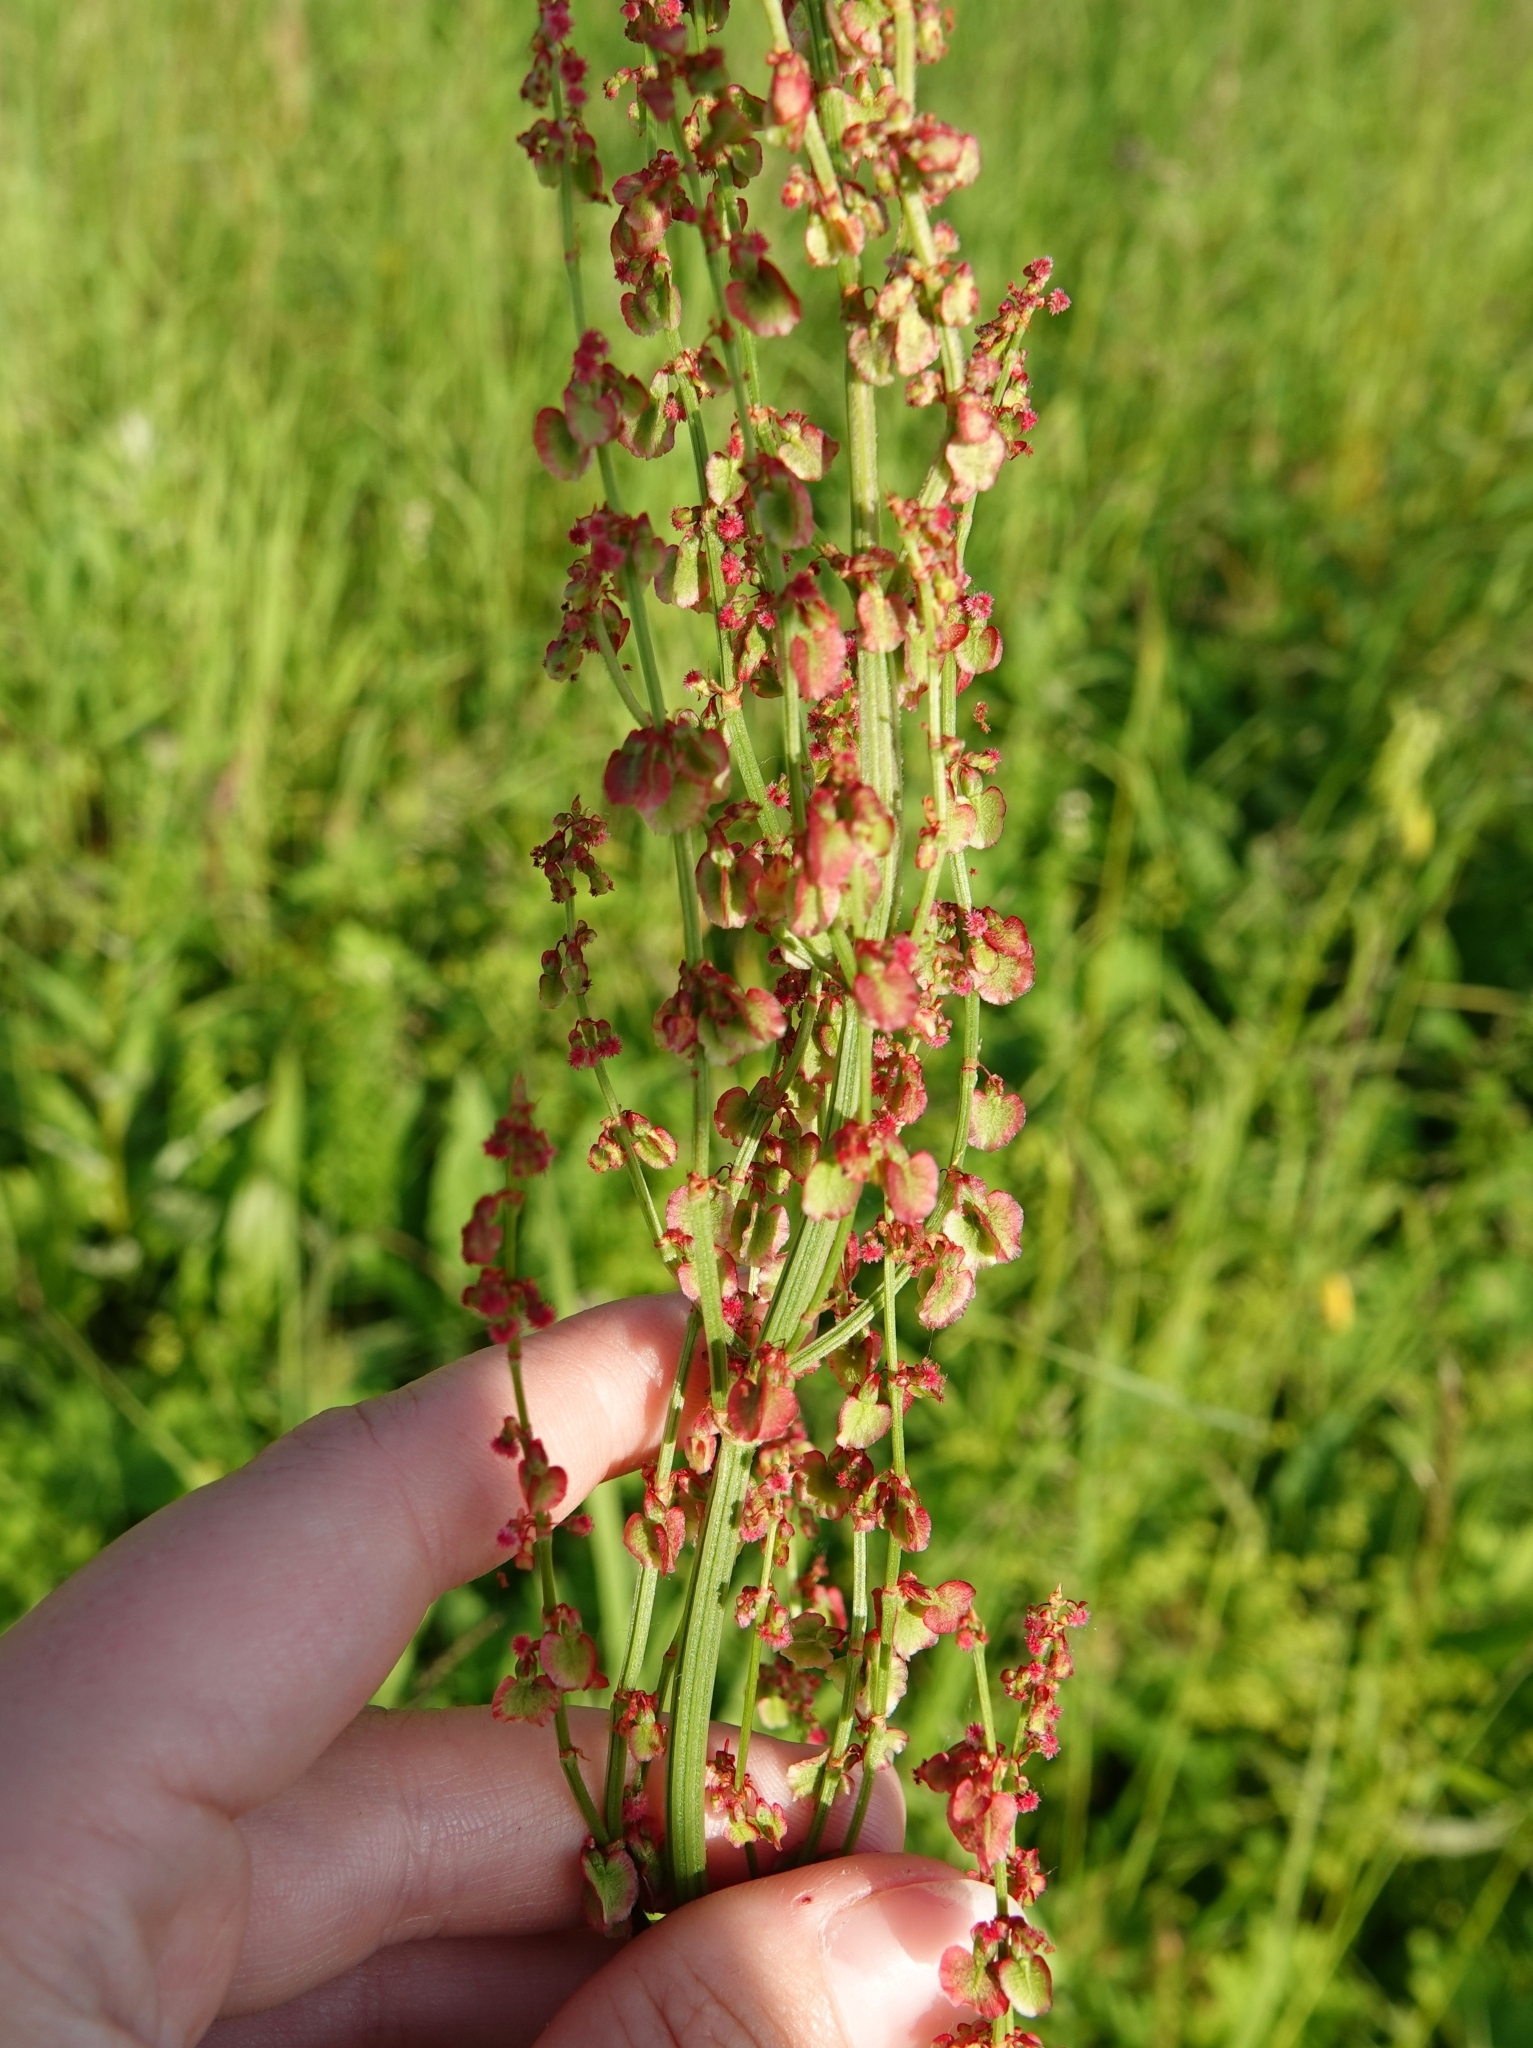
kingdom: Plantae
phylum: Tracheophyta
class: Magnoliopsida
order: Caryophyllales
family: Polygonaceae
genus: Rumex
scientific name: Rumex lapponicus
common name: Lapland mountain sorrel
